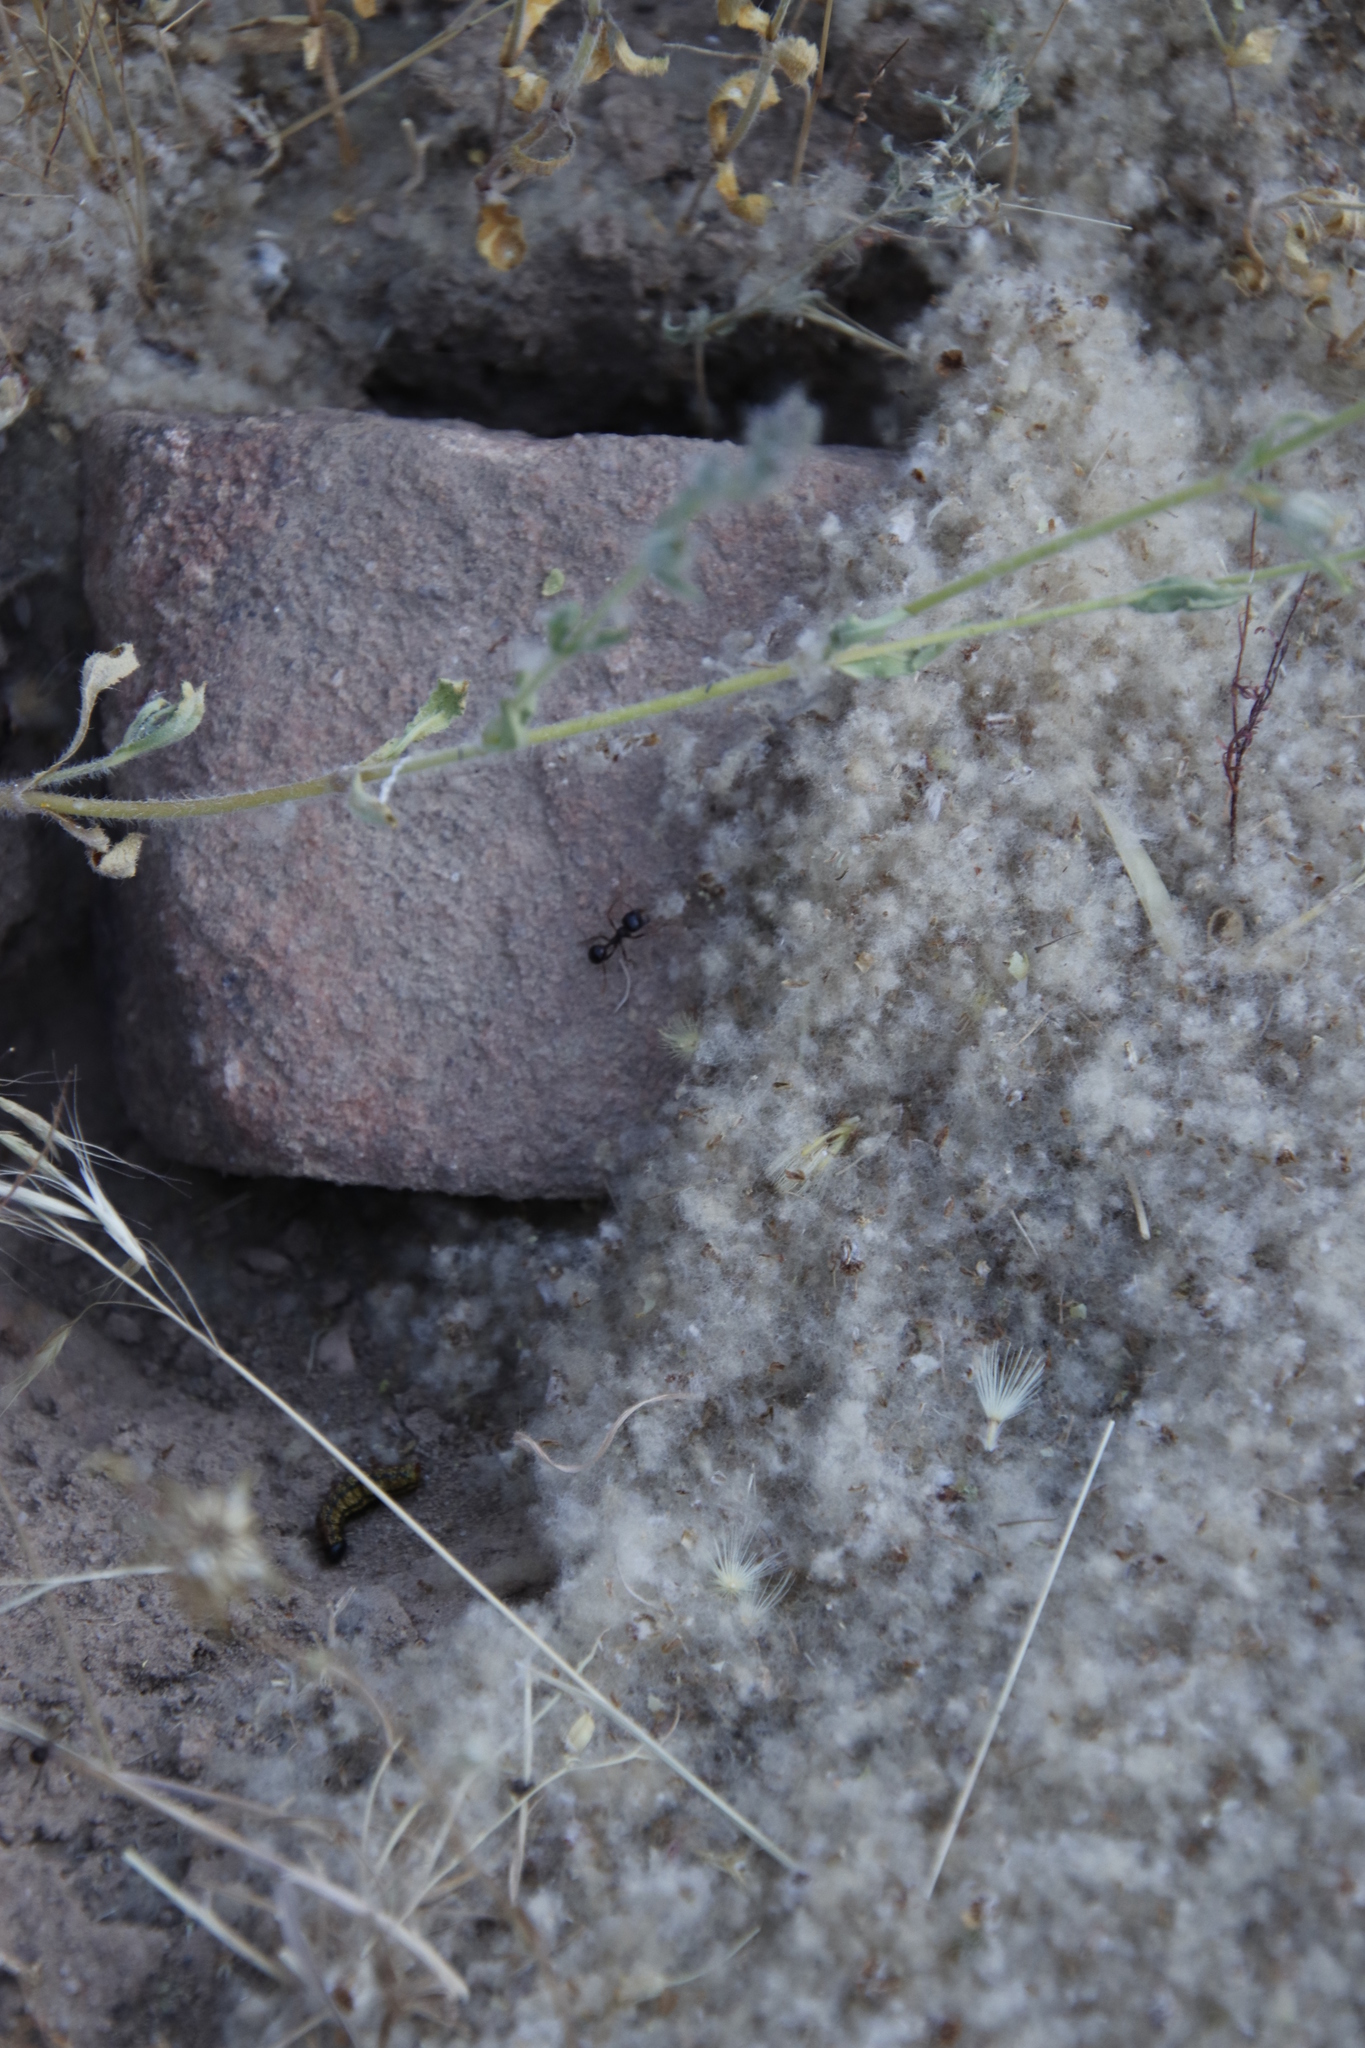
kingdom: Animalia
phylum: Arthropoda
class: Insecta
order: Hymenoptera
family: Formicidae
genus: Messor
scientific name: Messor capensis
